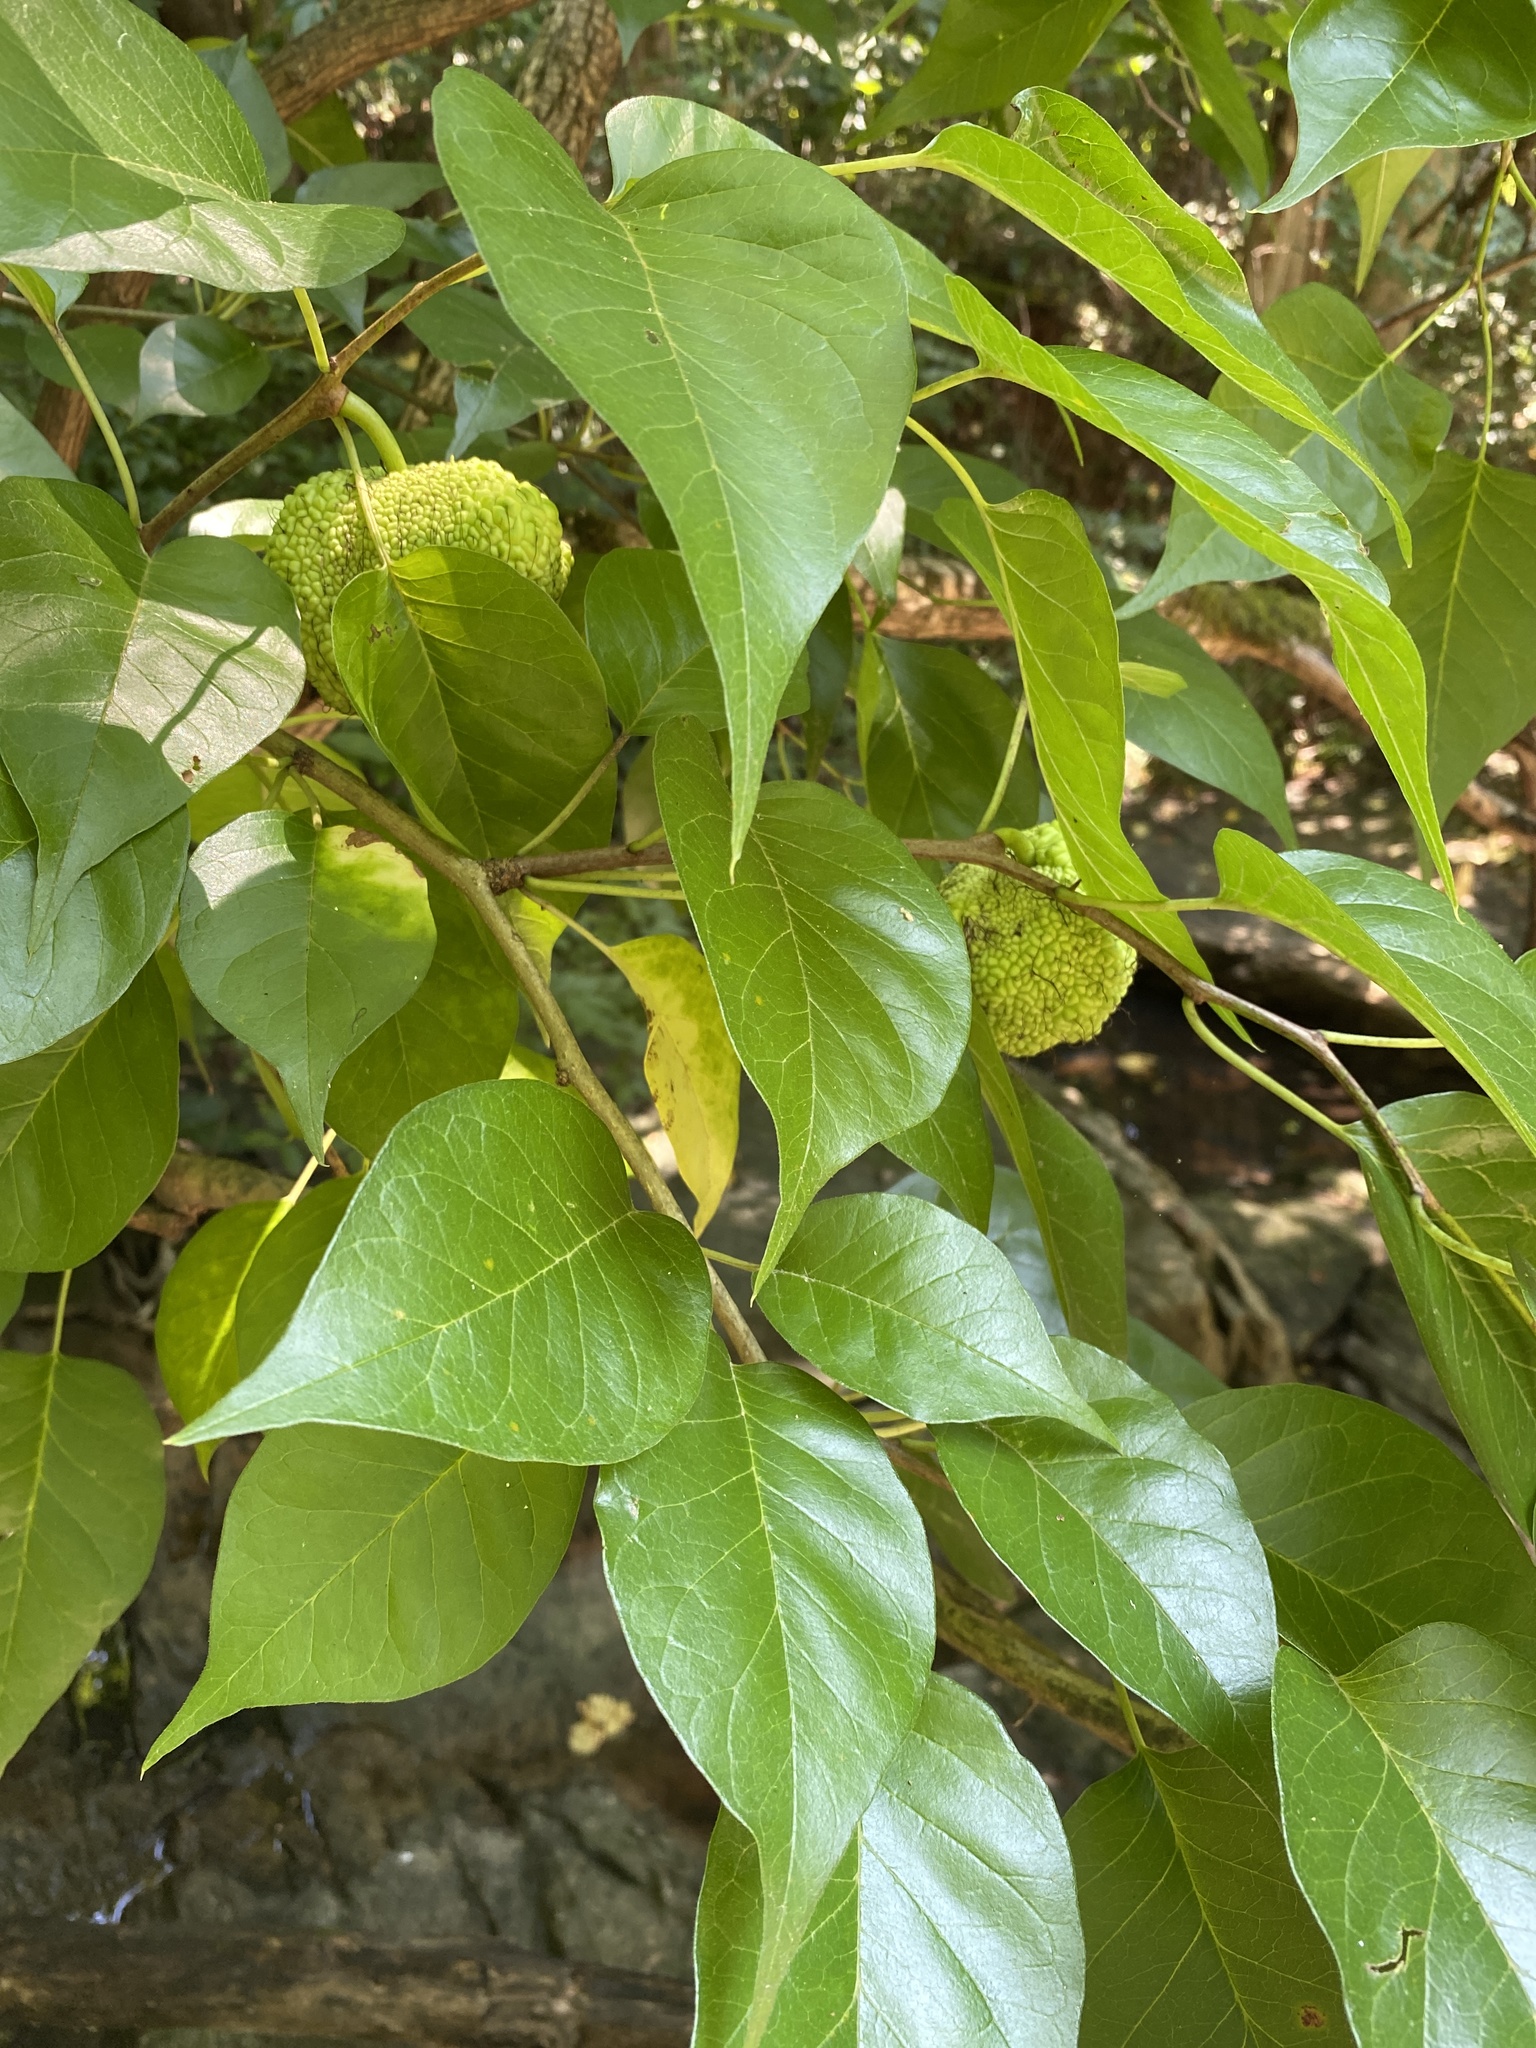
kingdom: Plantae
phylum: Tracheophyta
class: Magnoliopsida
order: Rosales
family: Moraceae
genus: Maclura
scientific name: Maclura pomifera
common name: Osage-orange
